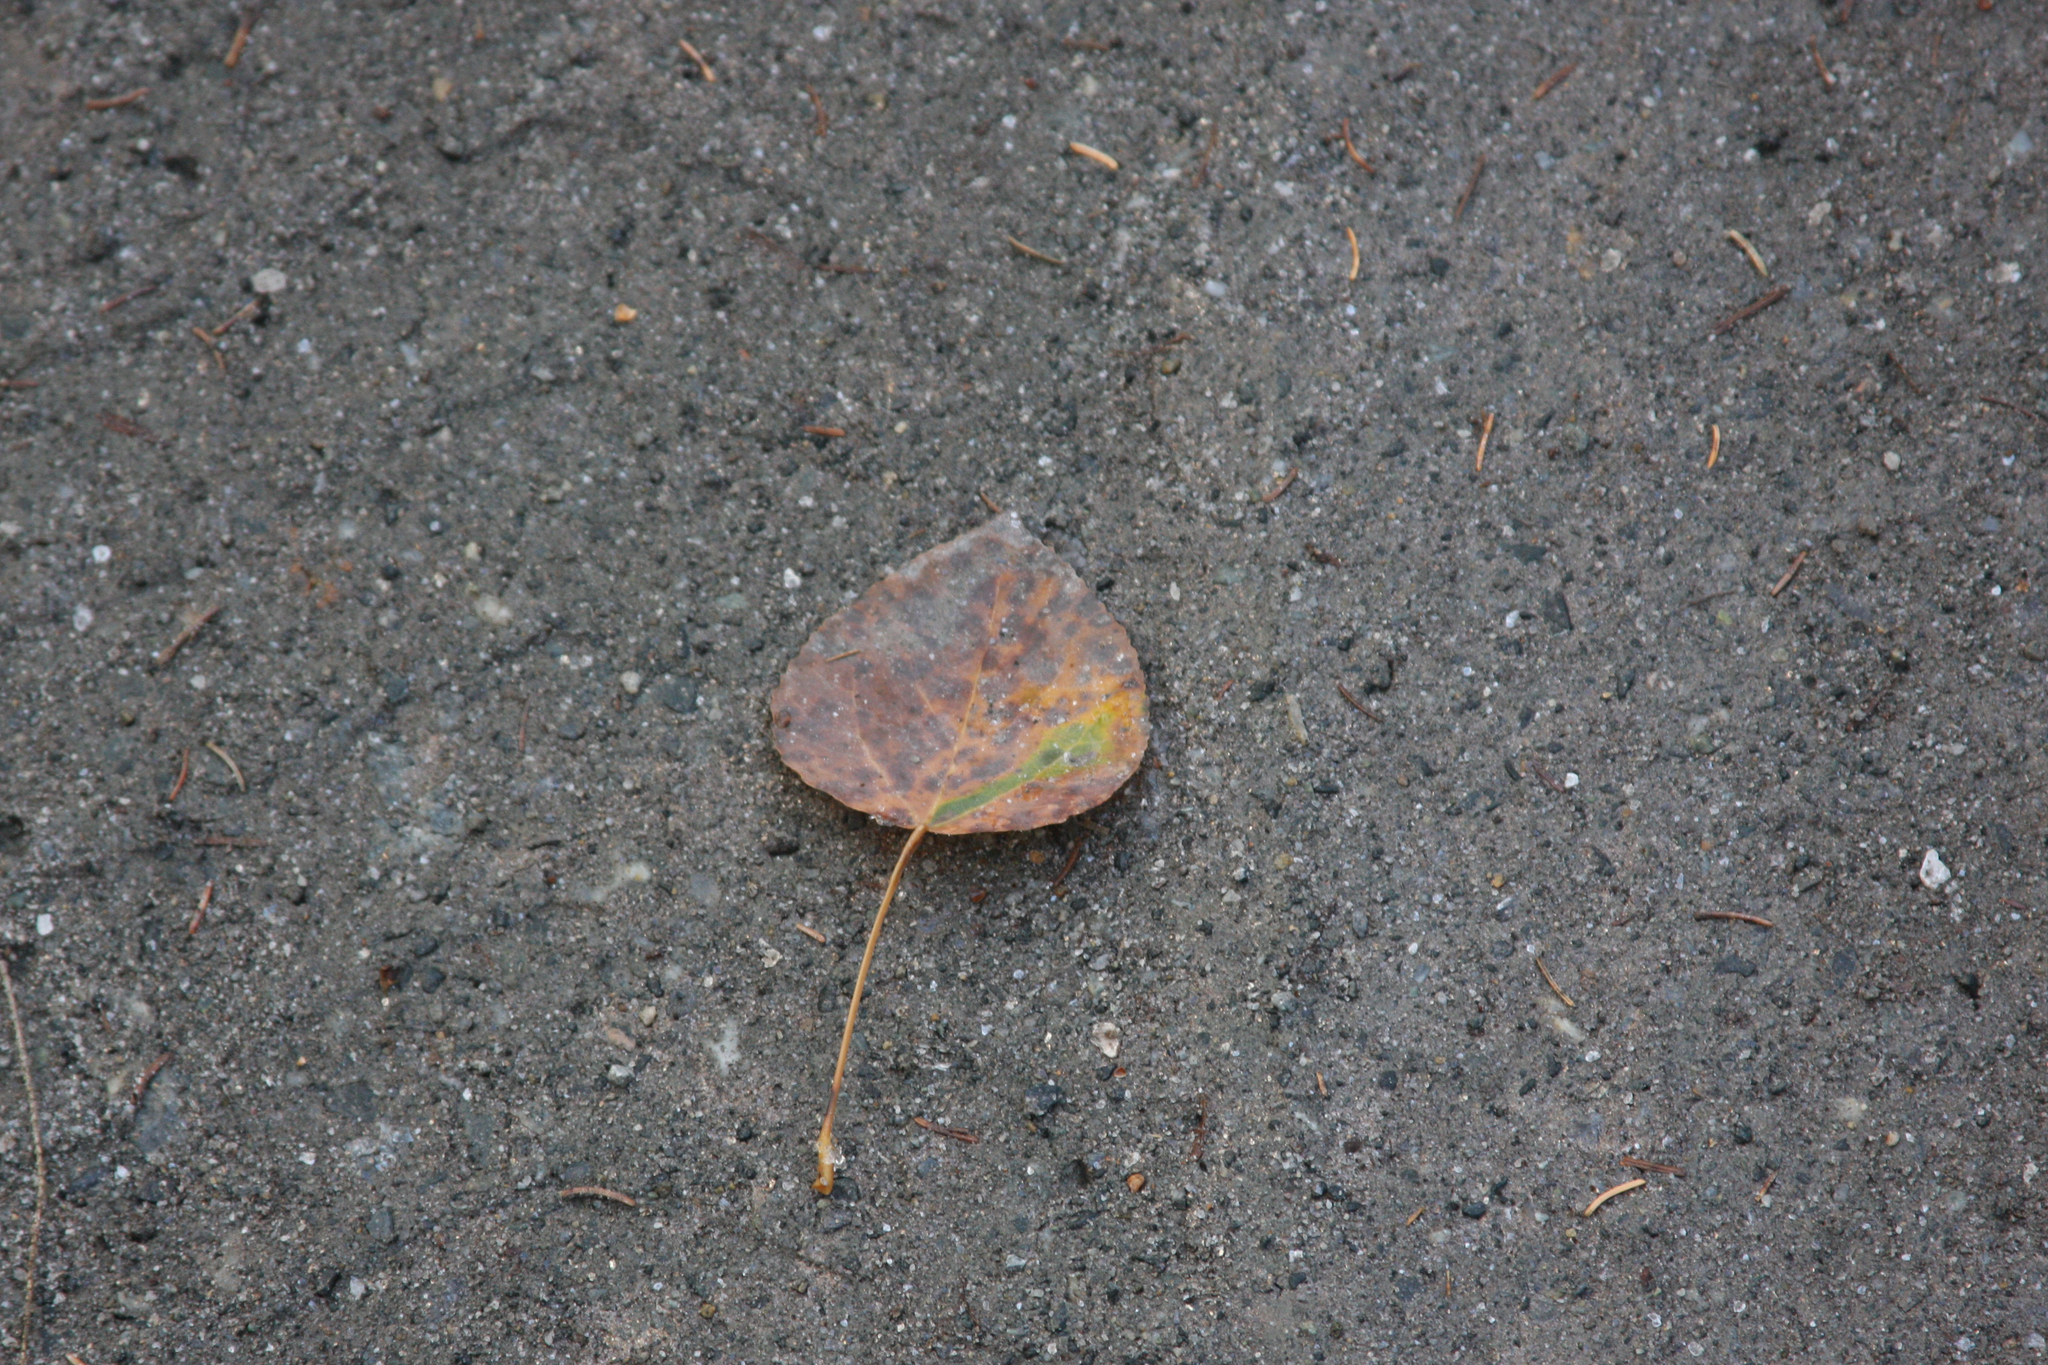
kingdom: Plantae
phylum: Tracheophyta
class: Magnoliopsida
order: Malpighiales
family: Salicaceae
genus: Populus
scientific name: Populus tremuloides
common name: Quaking aspen
